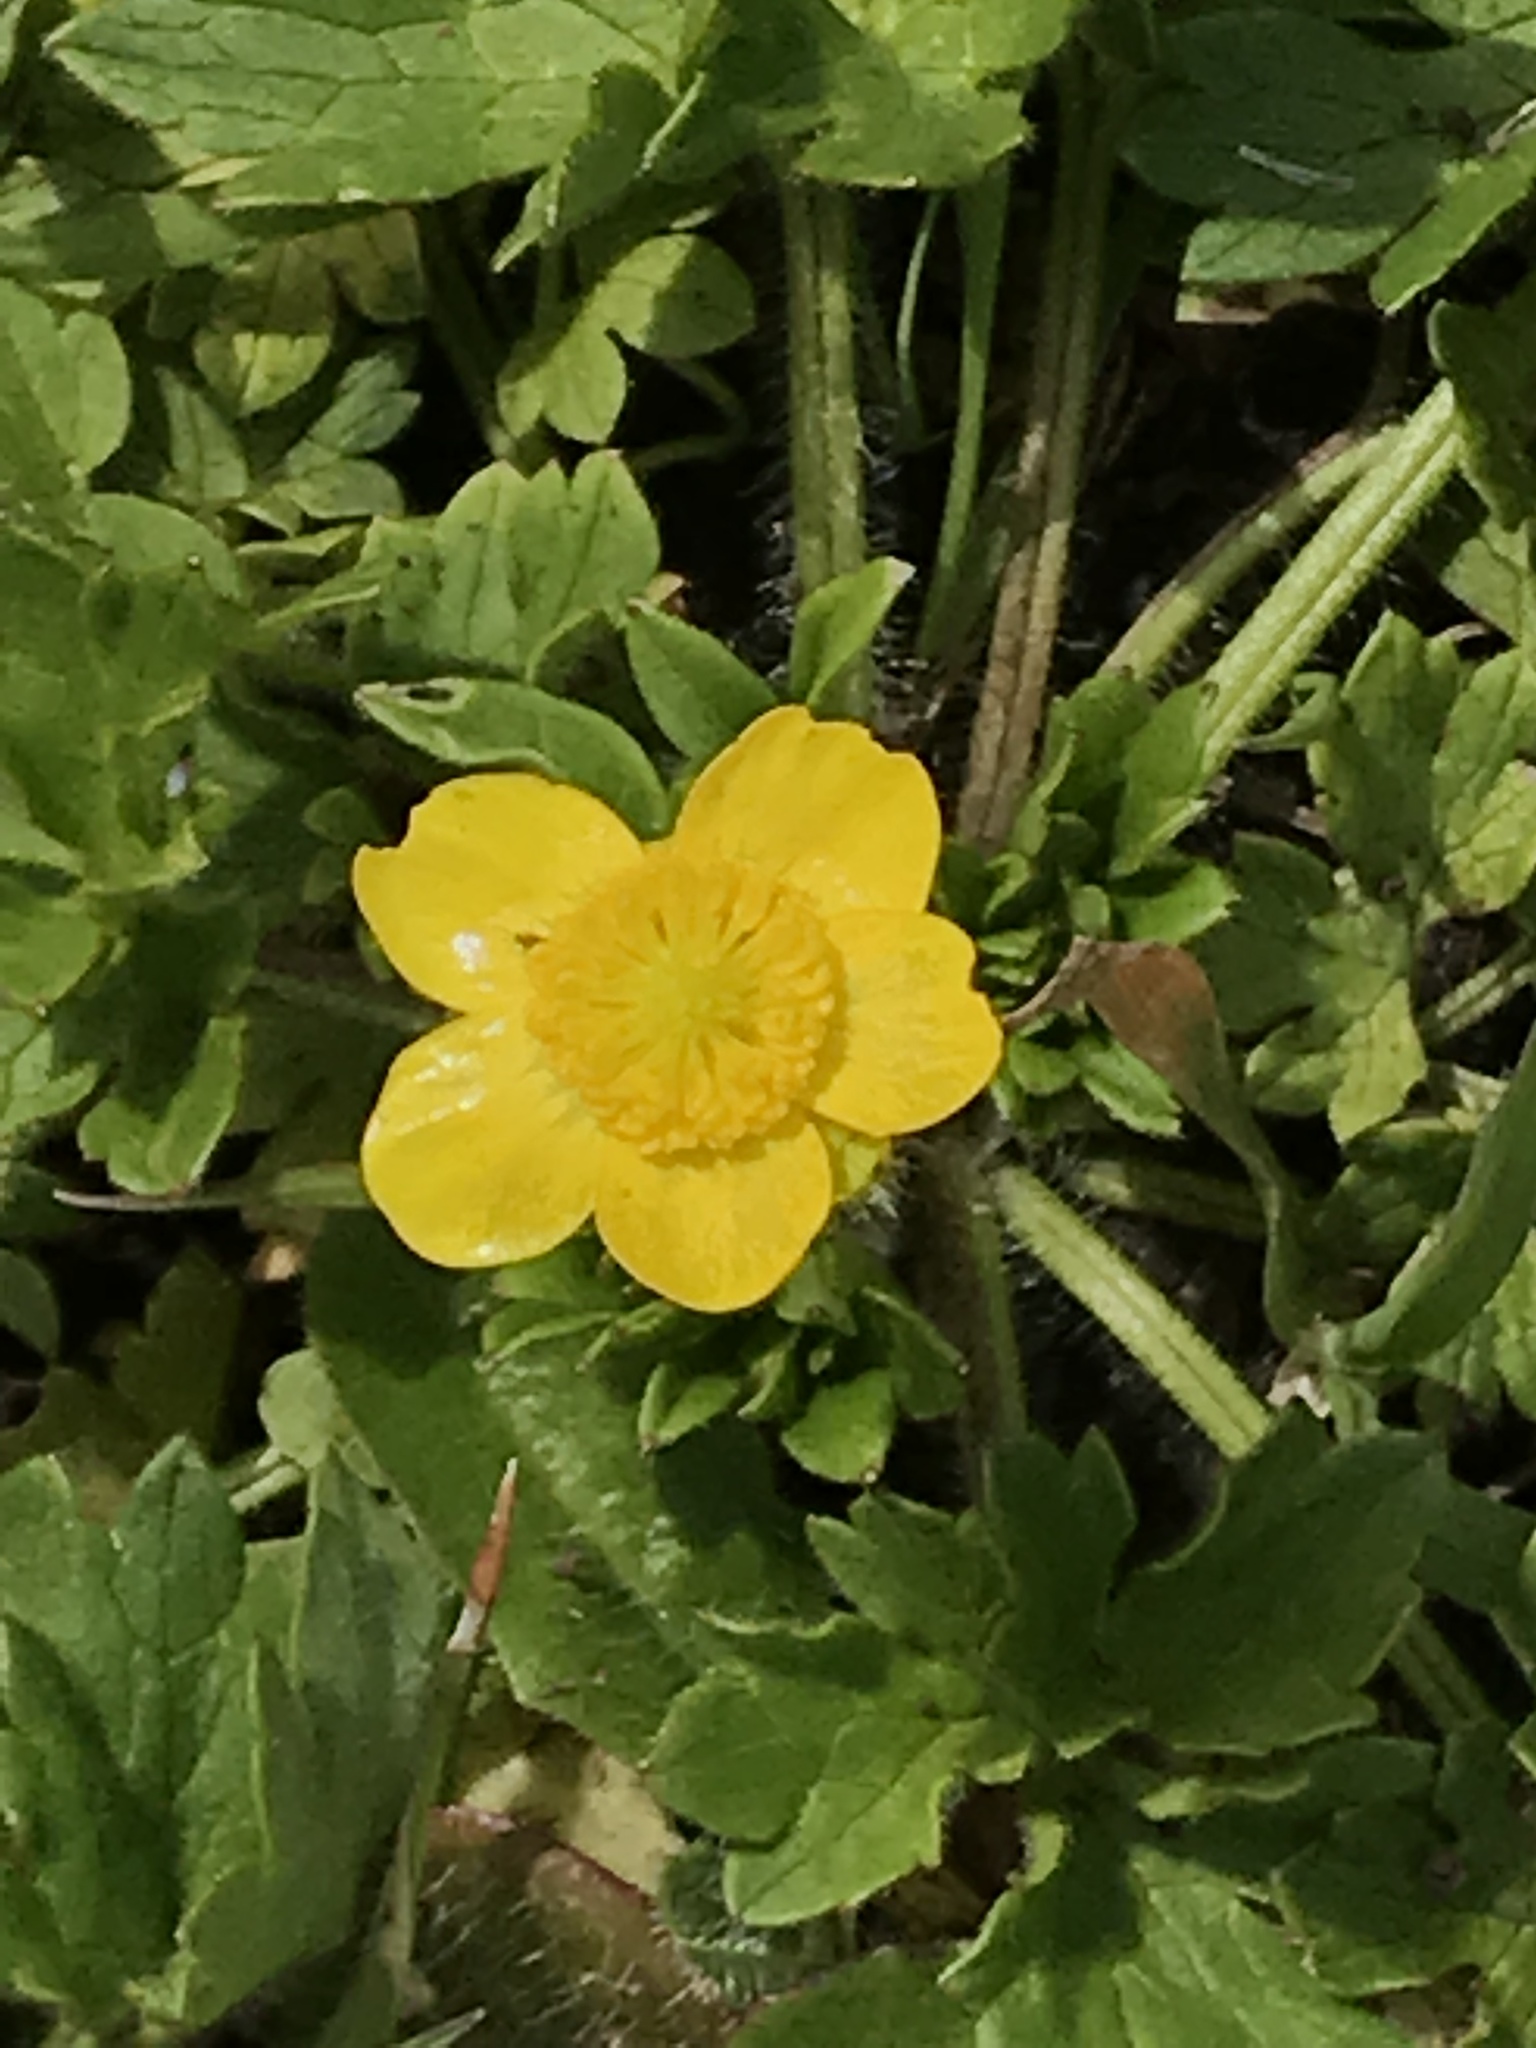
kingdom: Plantae
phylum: Tracheophyta
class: Magnoliopsida
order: Ranunculales
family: Ranunculaceae
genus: Ranunculus
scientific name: Ranunculus repens
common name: Creeping buttercup
